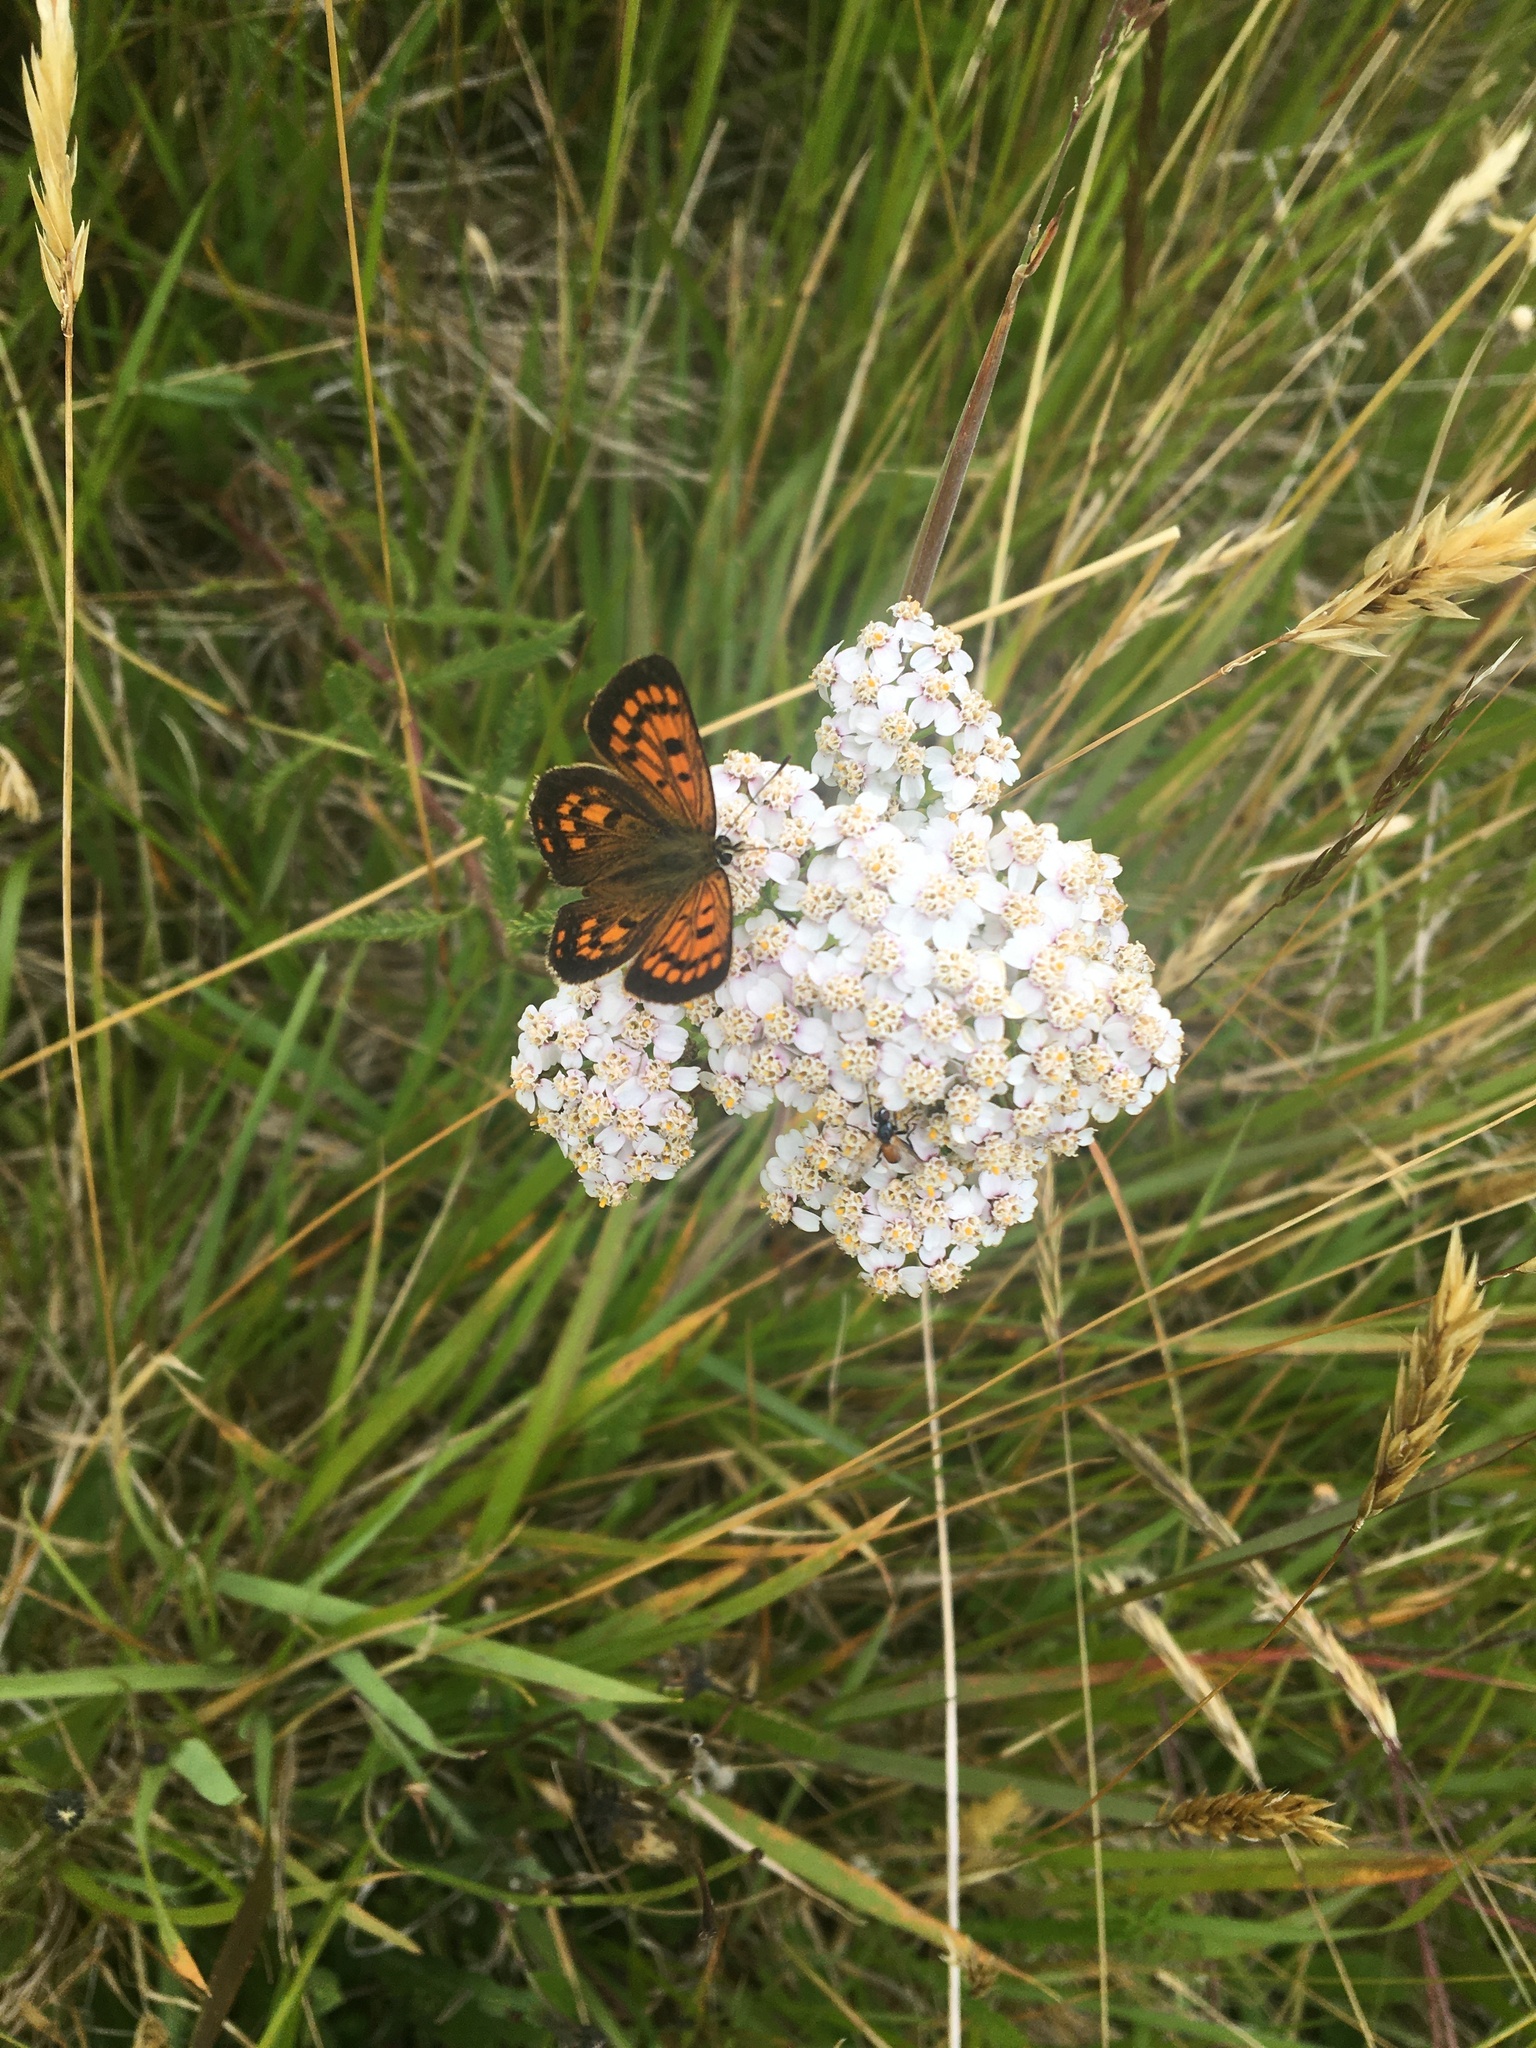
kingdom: Plantae
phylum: Tracheophyta
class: Magnoliopsida
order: Asterales
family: Asteraceae
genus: Achillea
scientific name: Achillea millefolium
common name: Yarrow
